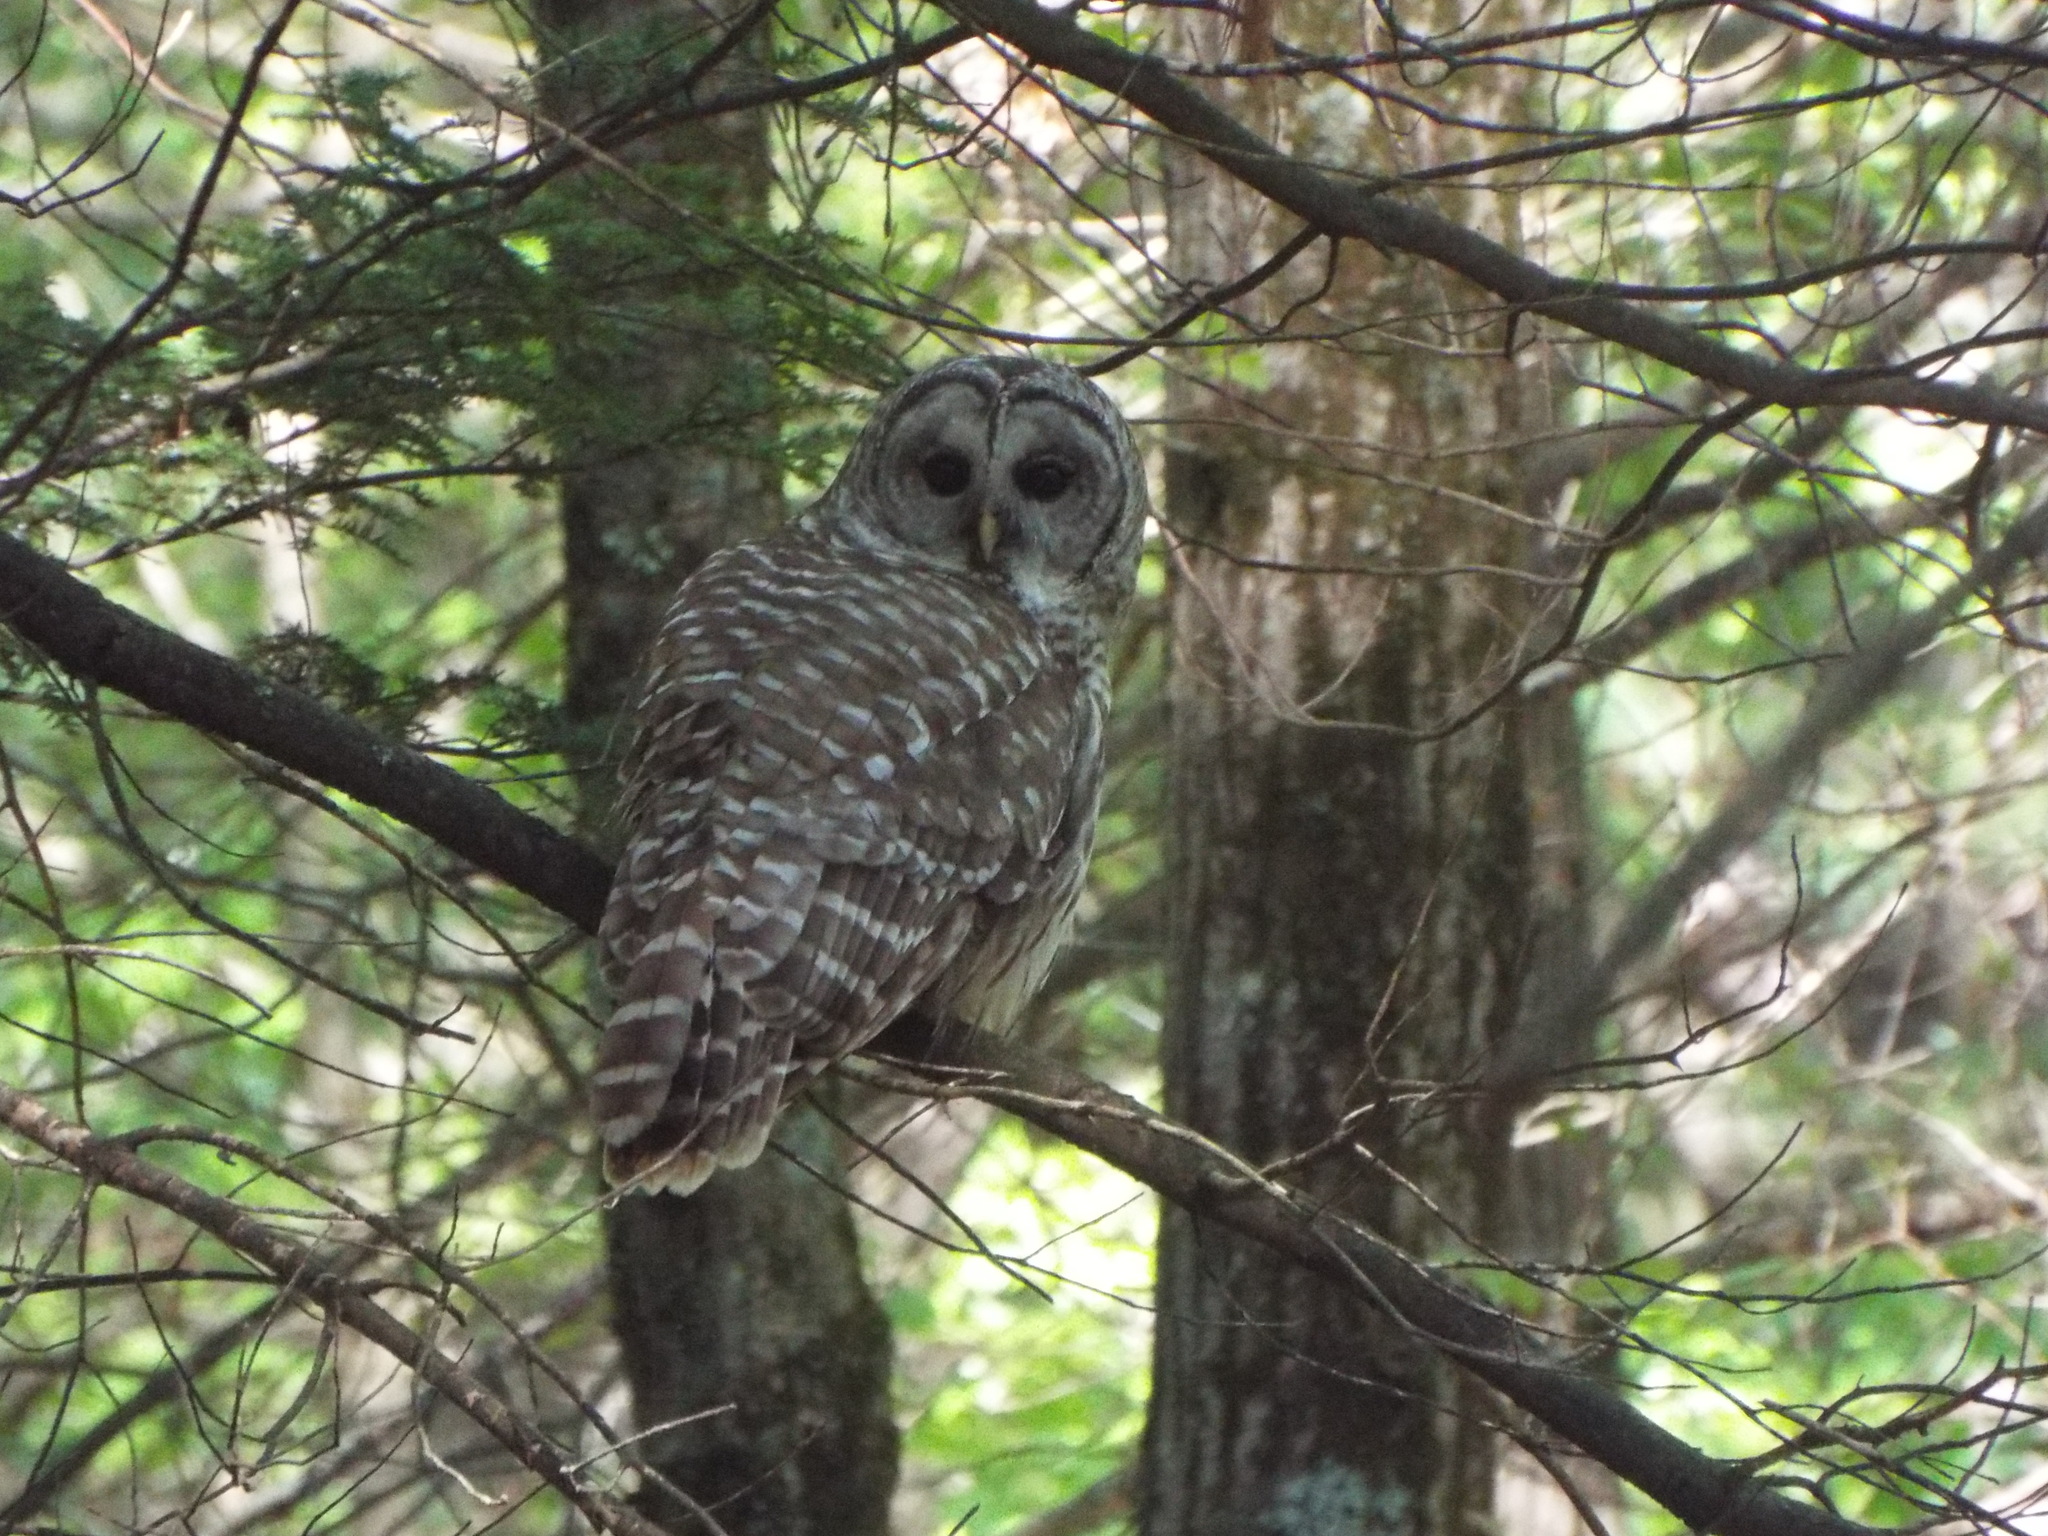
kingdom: Animalia
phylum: Chordata
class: Aves
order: Strigiformes
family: Strigidae
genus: Strix
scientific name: Strix varia
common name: Barred owl
